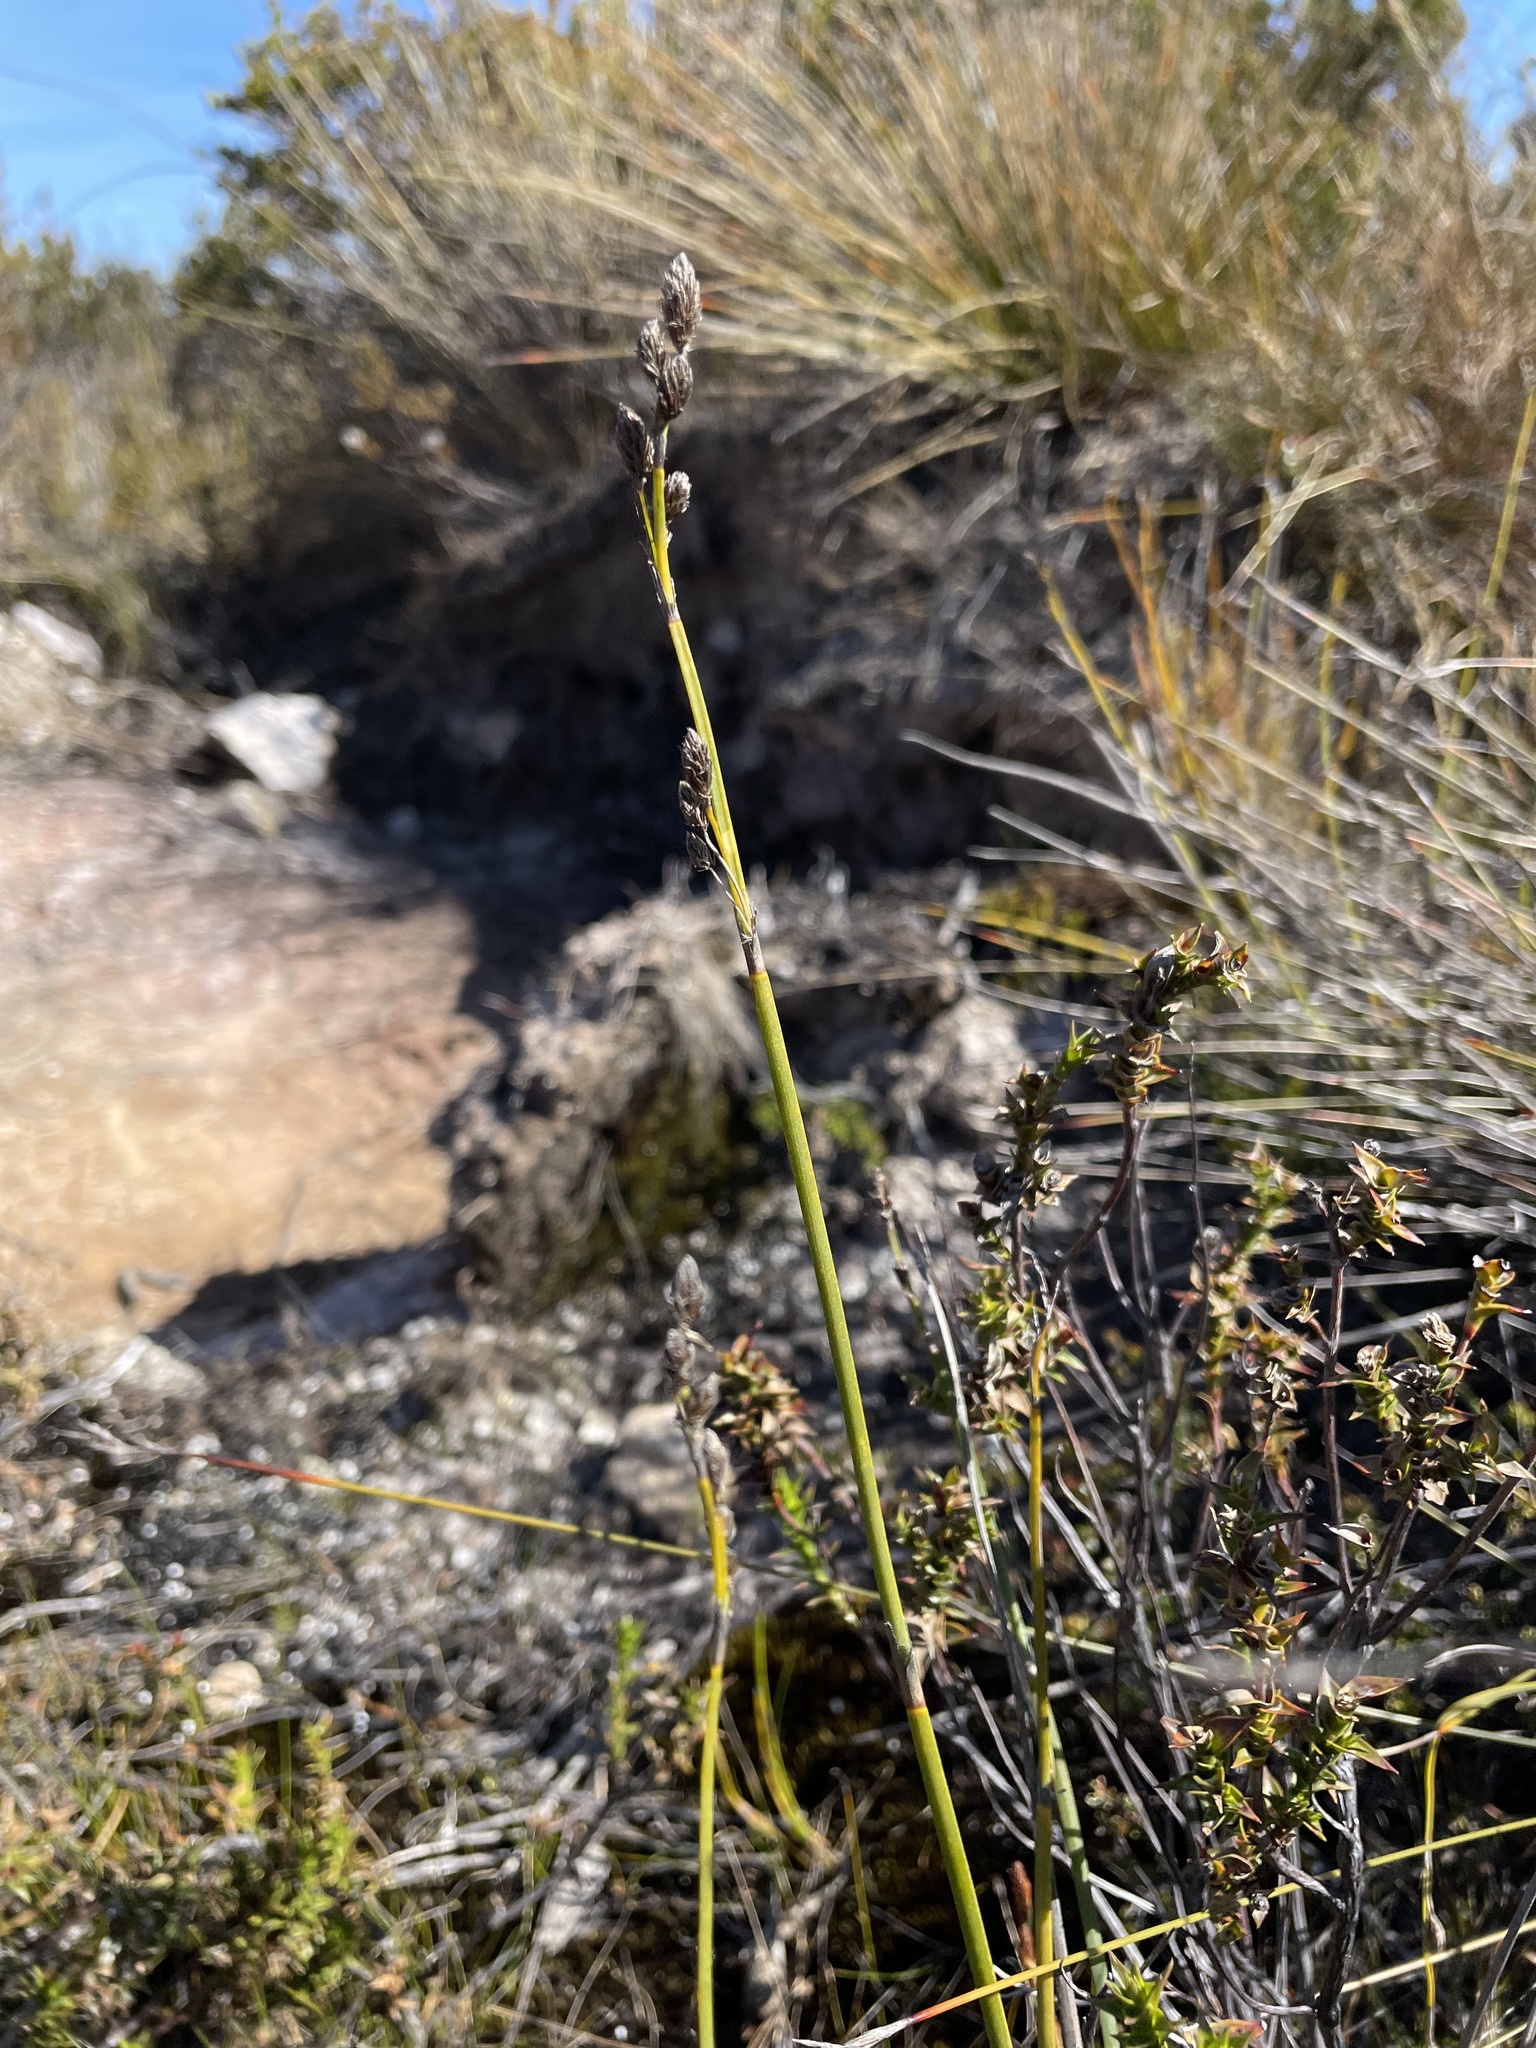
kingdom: Plantae
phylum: Tracheophyta
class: Liliopsida
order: Poales
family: Restionaceae
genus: Eurychorda
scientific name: Eurychorda complanata
